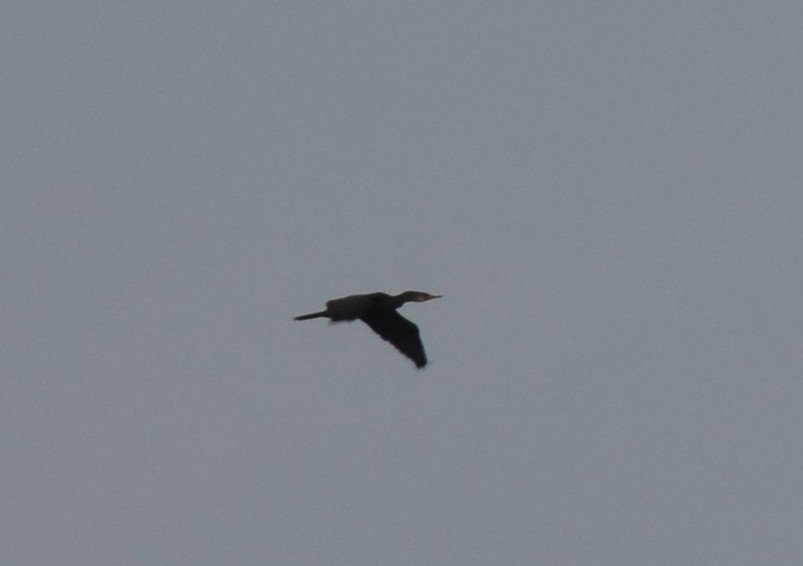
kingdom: Animalia
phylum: Chordata
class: Aves
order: Suliformes
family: Phalacrocoracidae
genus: Microcarbo
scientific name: Microcarbo niger
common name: Little cormorant
